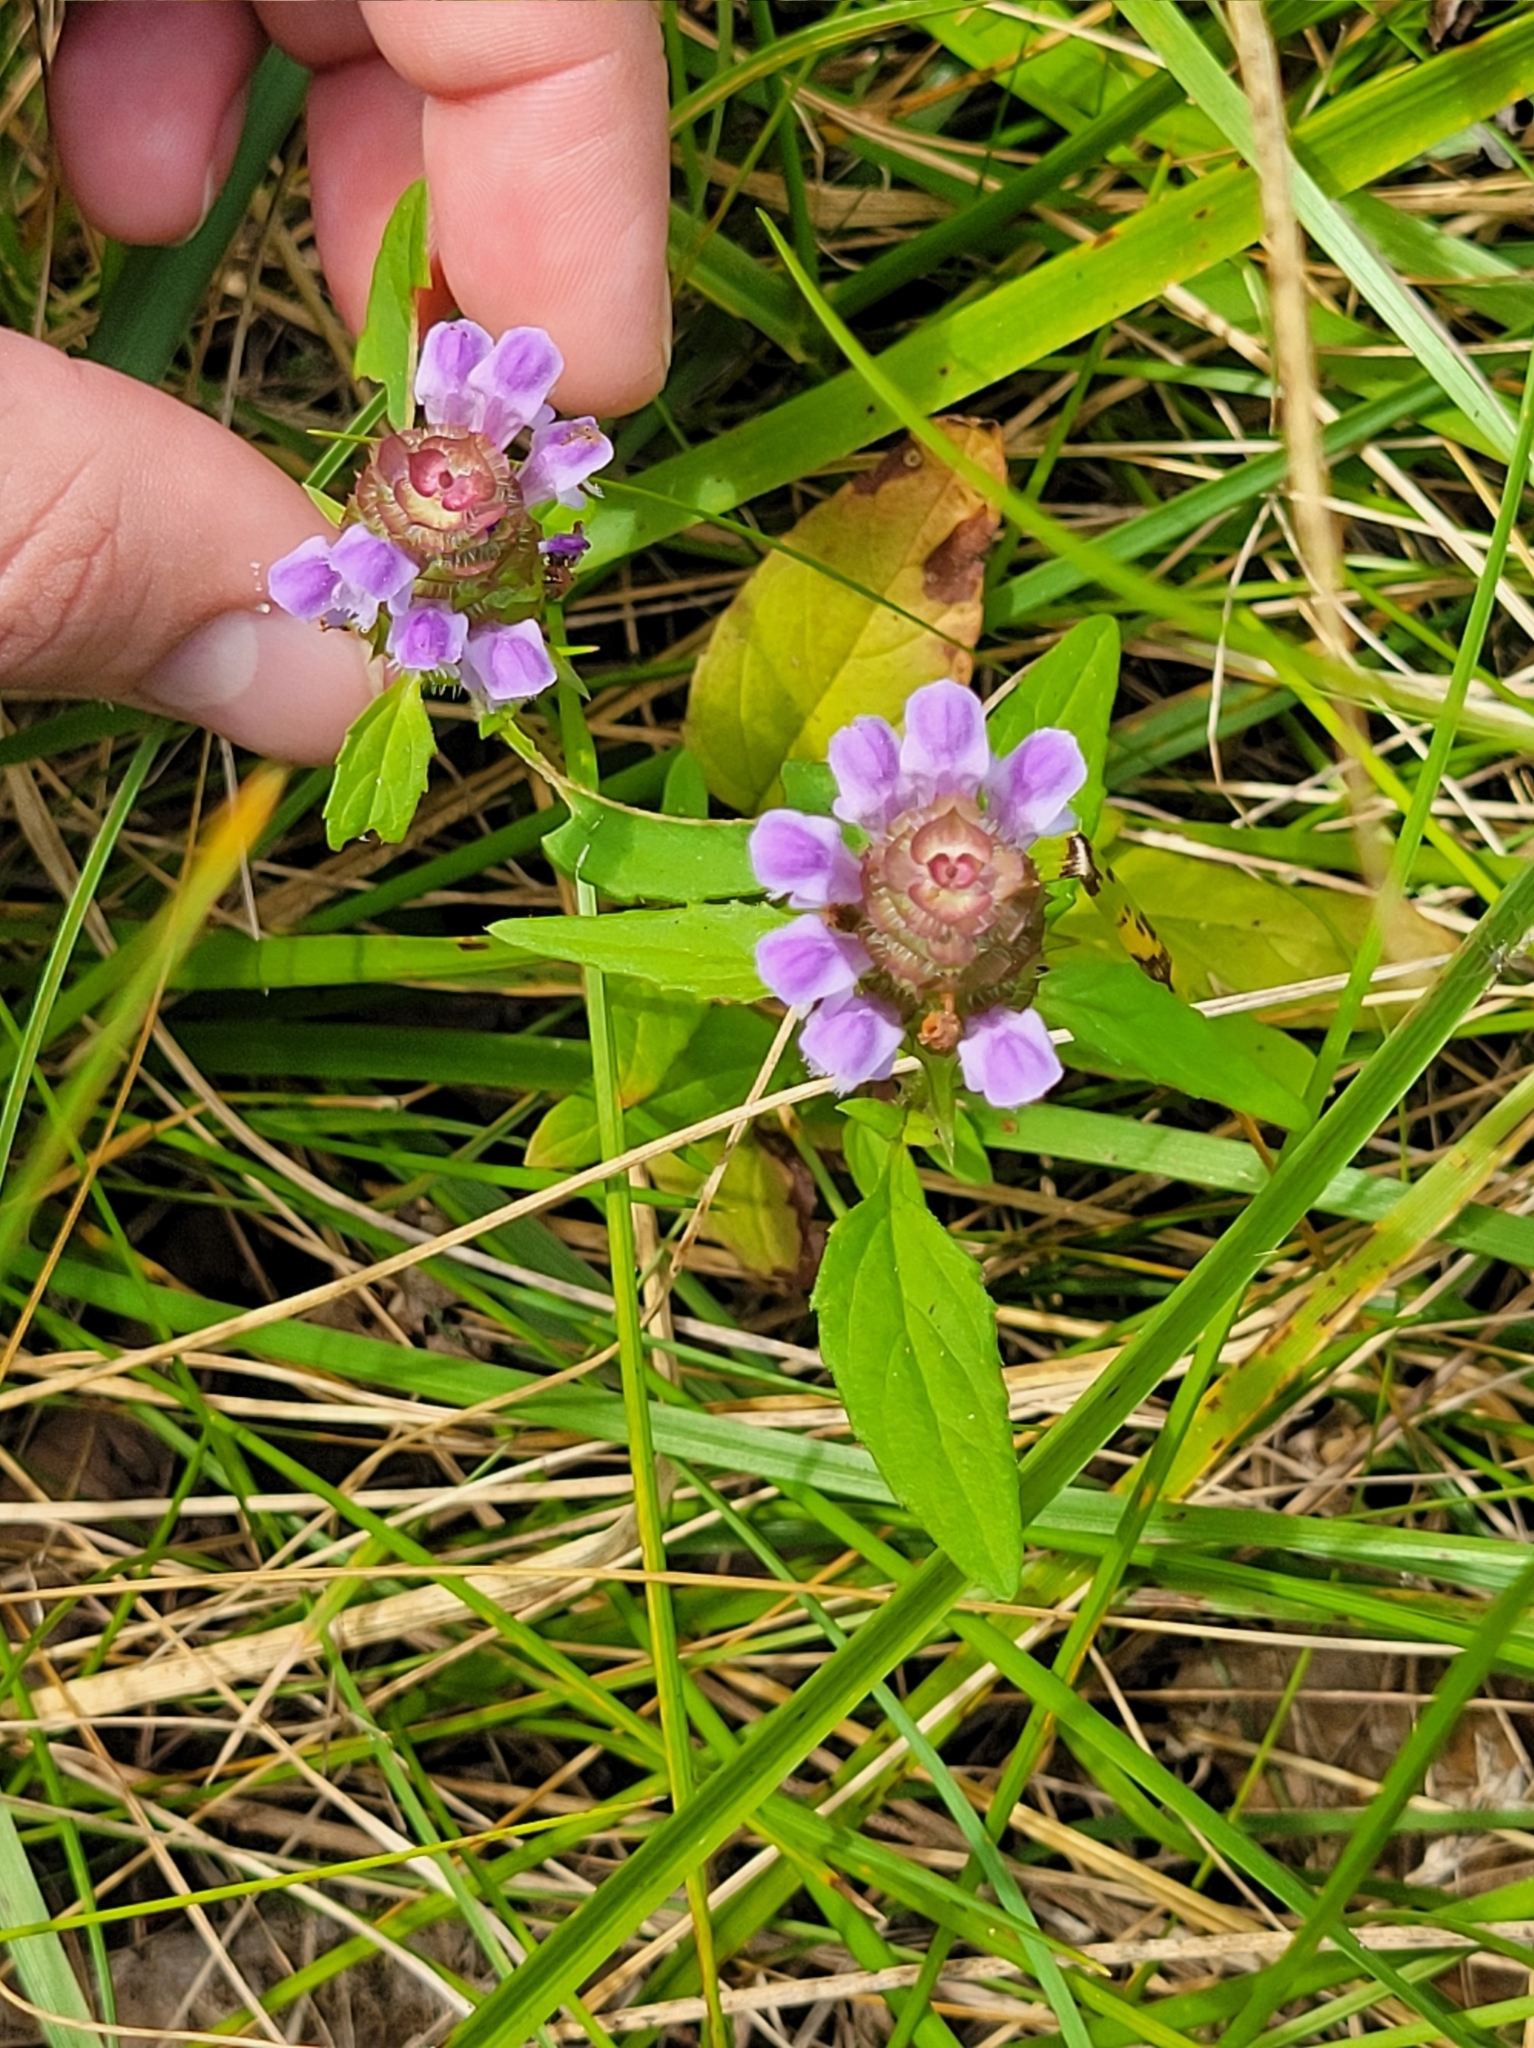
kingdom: Plantae
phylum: Tracheophyta
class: Magnoliopsida
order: Lamiales
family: Lamiaceae
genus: Prunella
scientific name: Prunella vulgaris
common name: Heal-all
